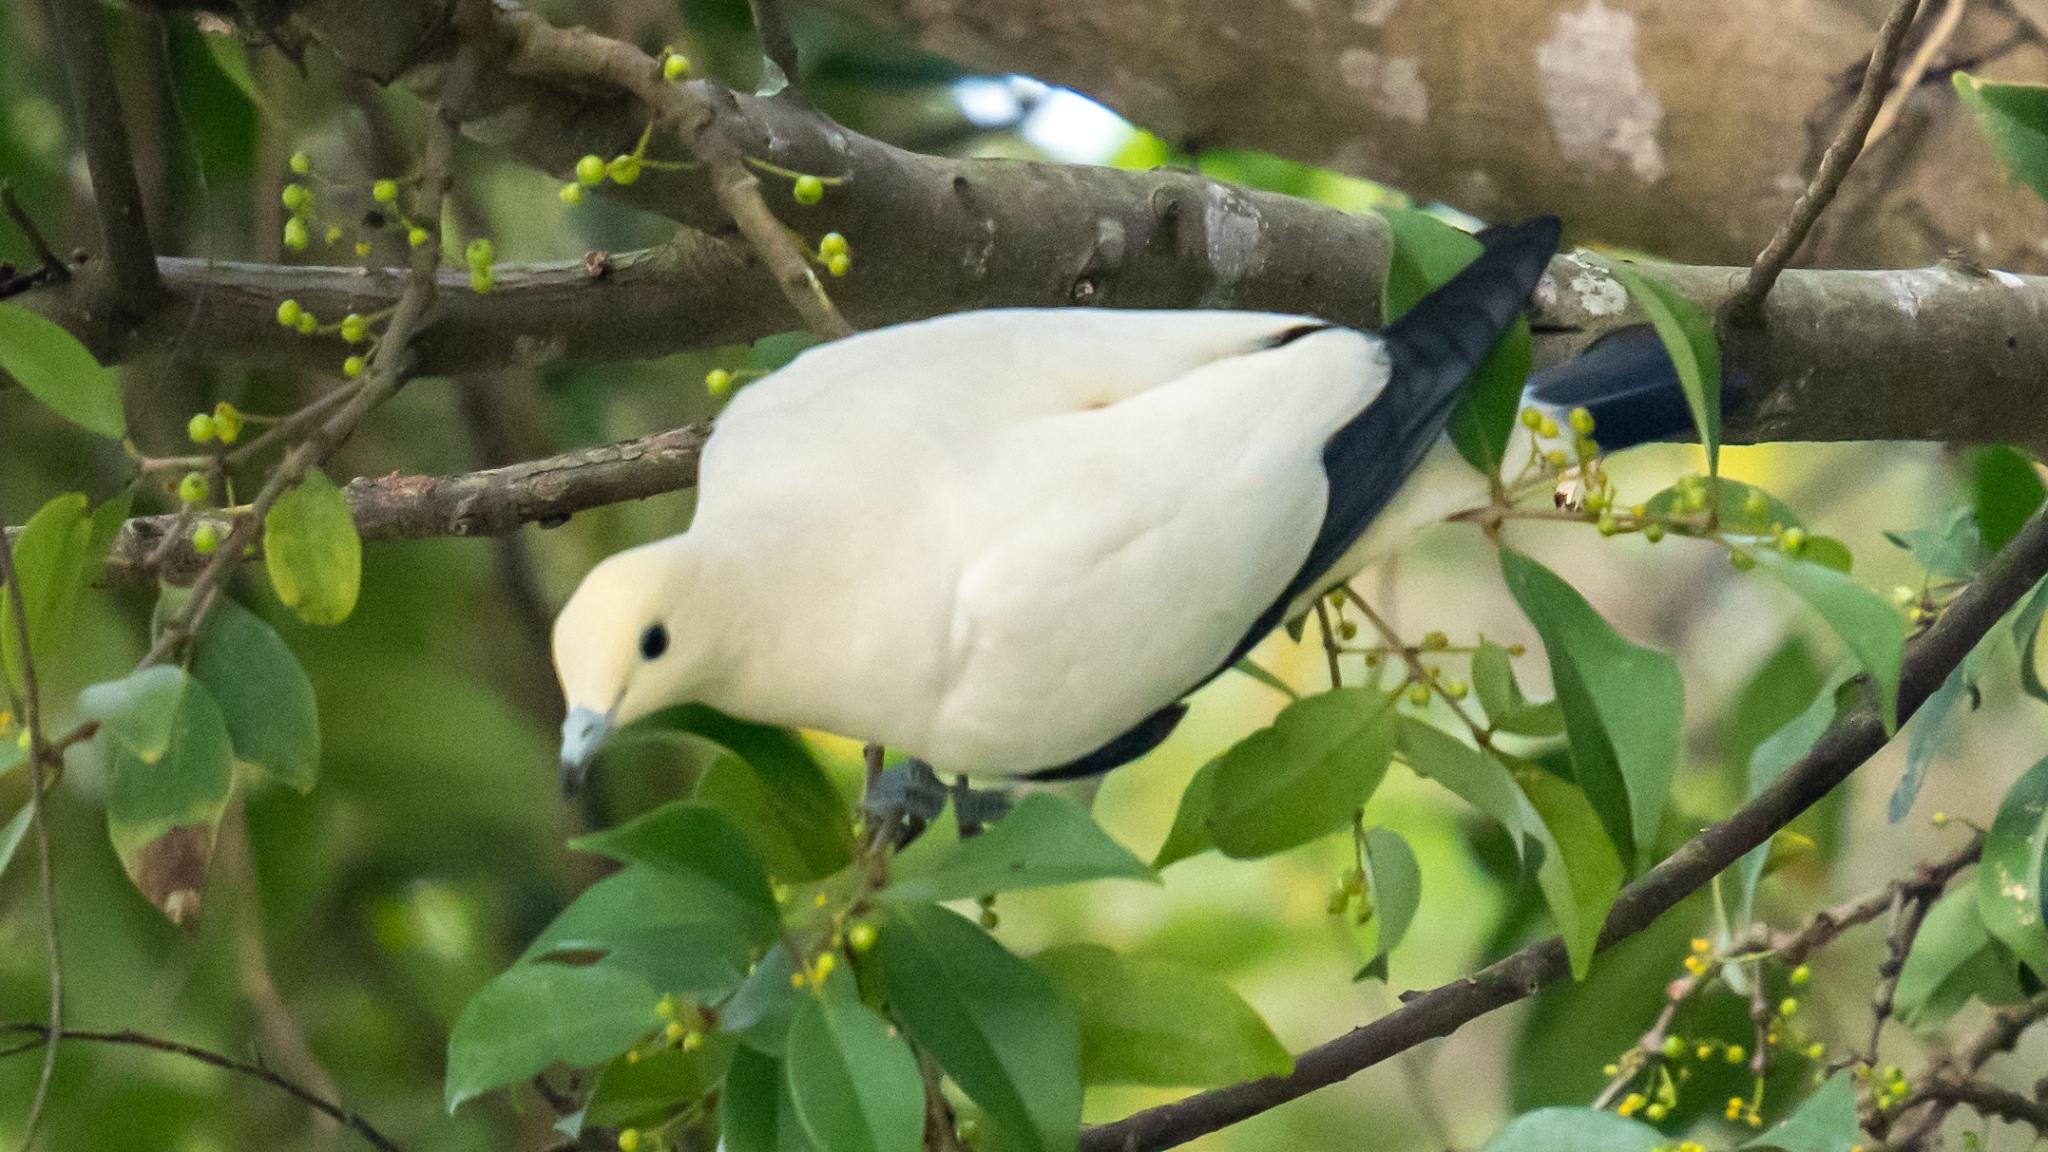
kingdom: Animalia
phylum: Chordata
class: Aves
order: Columbiformes
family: Columbidae
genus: Ducula
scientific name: Ducula bicolor
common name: Pied imperial pigeon
